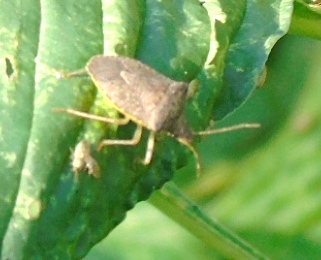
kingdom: Animalia
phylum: Arthropoda
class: Insecta
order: Hemiptera
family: Pentatomidae
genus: Euschistus
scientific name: Euschistus
